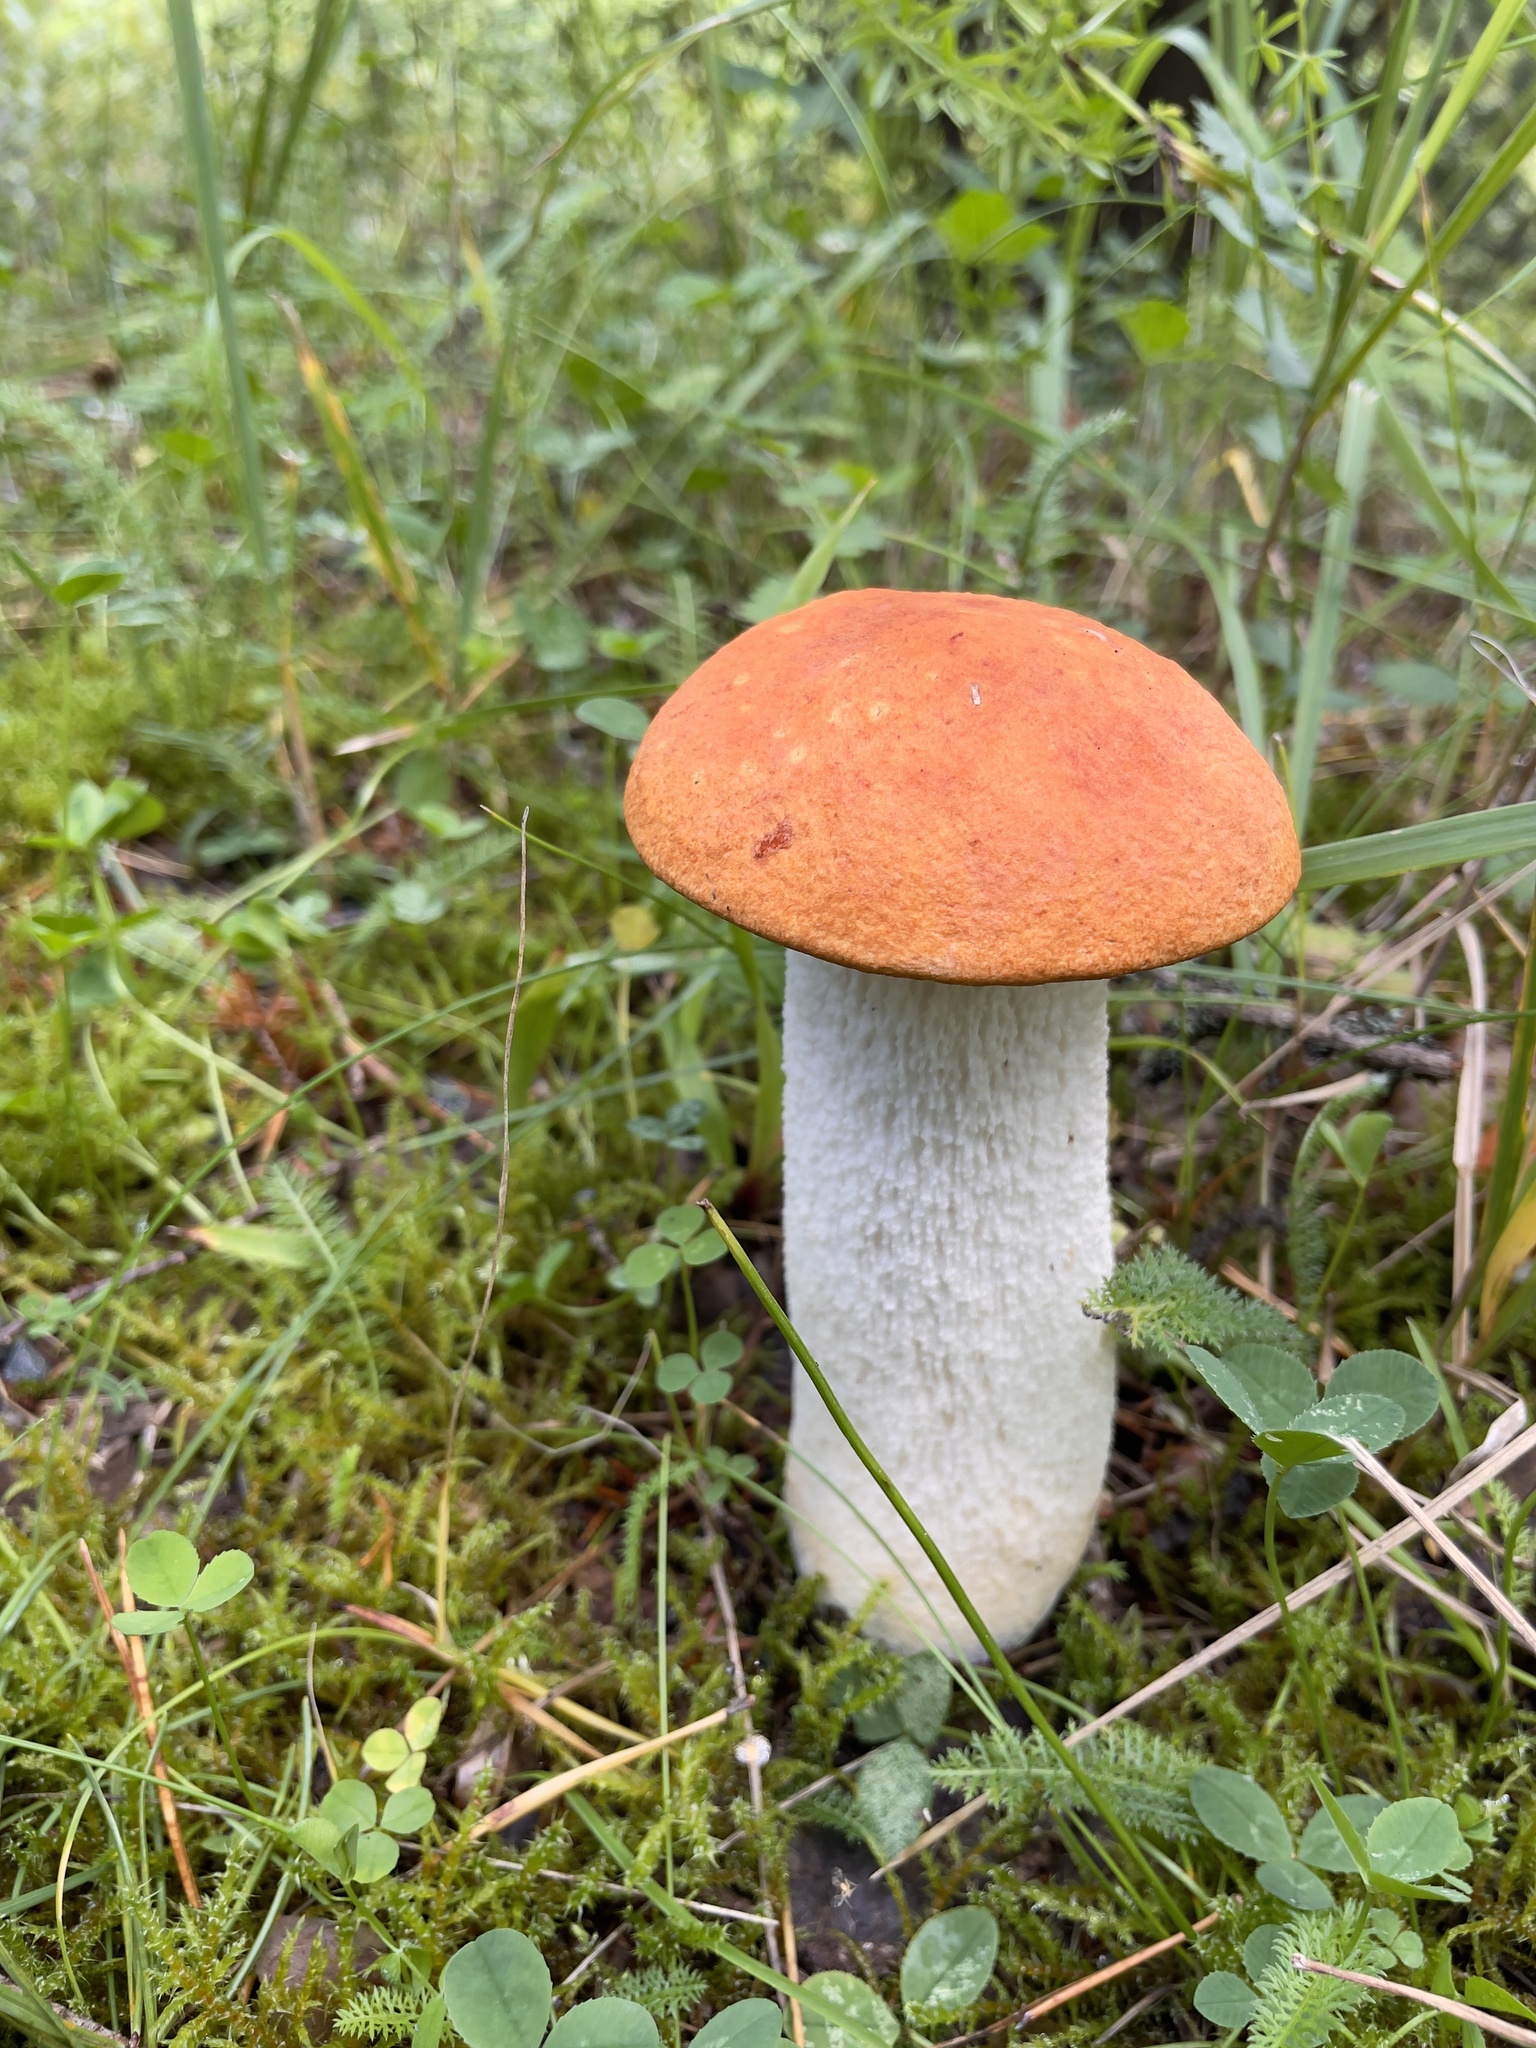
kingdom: Fungi
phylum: Basidiomycota
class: Agaricomycetes
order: Boletales
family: Boletaceae
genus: Leccinum
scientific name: Leccinum albostipitatum
